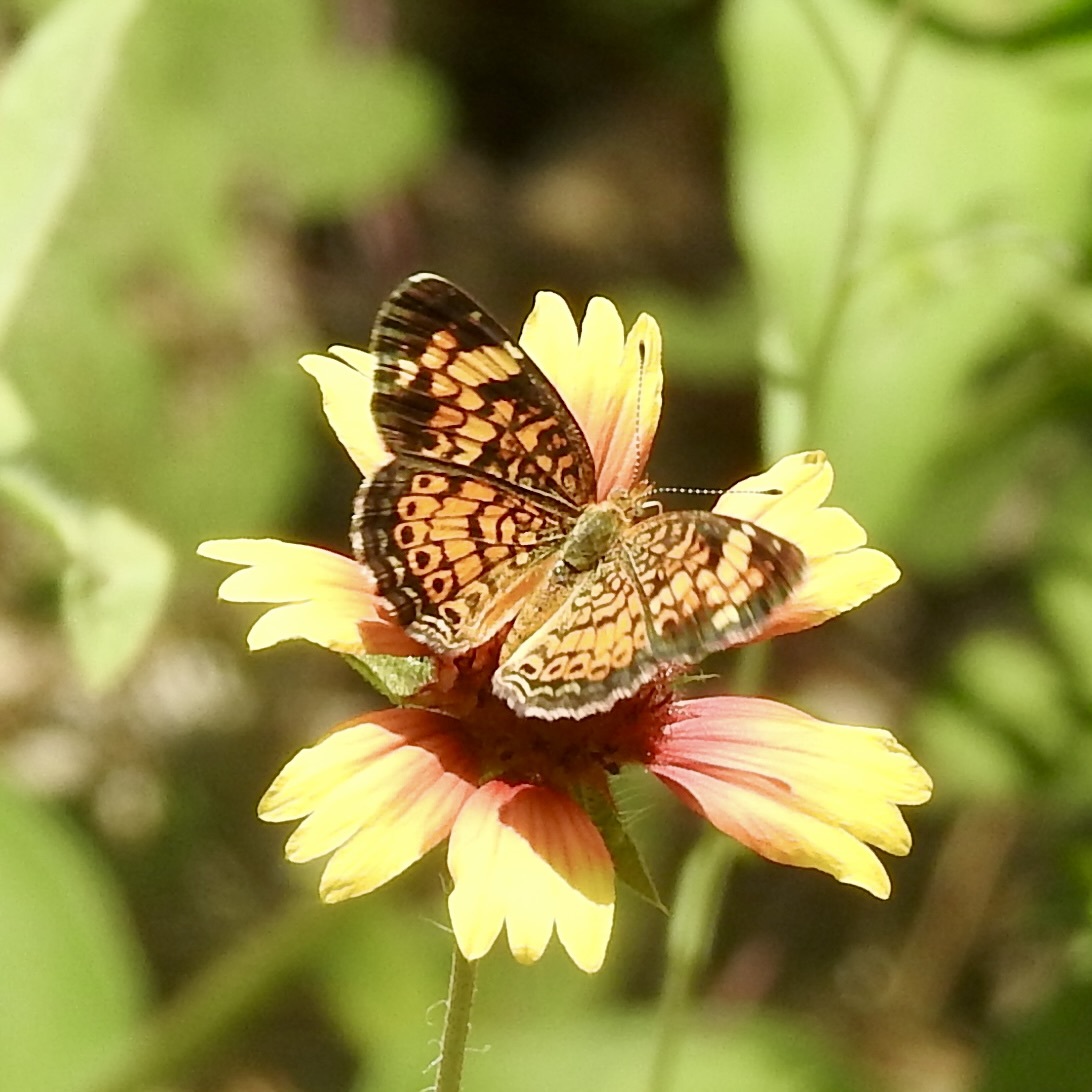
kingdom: Animalia
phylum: Arthropoda
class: Insecta
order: Lepidoptera
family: Nymphalidae
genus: Phyciodes
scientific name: Phyciodes tharos
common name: Pearl crescent
